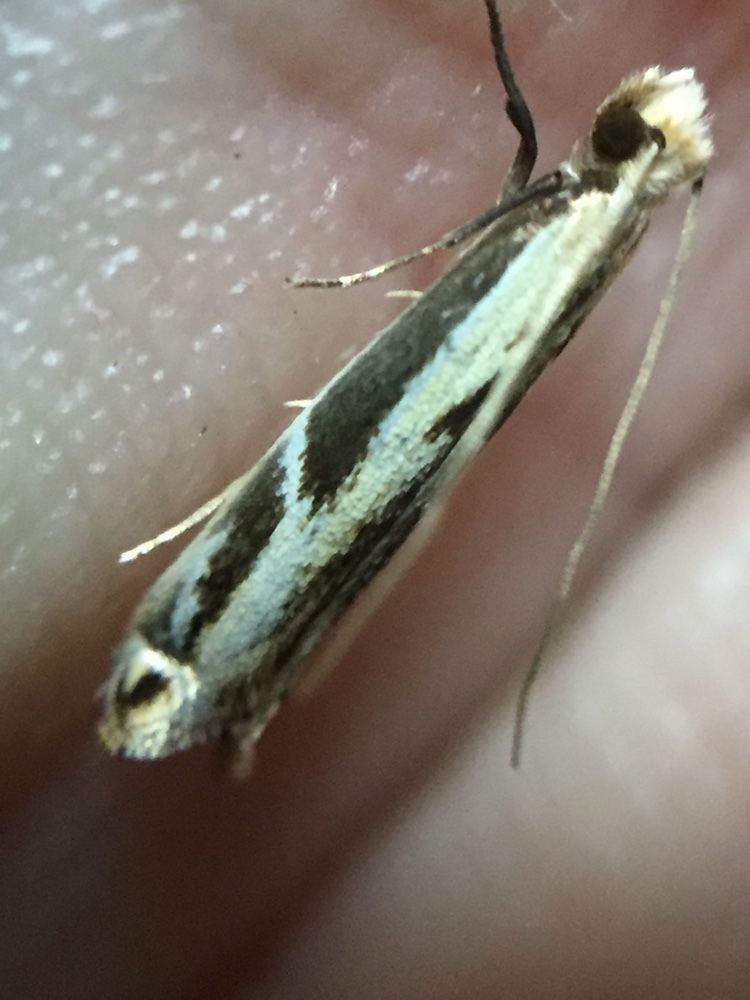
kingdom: Animalia
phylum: Arthropoda
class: Insecta
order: Lepidoptera
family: Tineidae
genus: Erechthias
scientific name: Erechthias terminella
